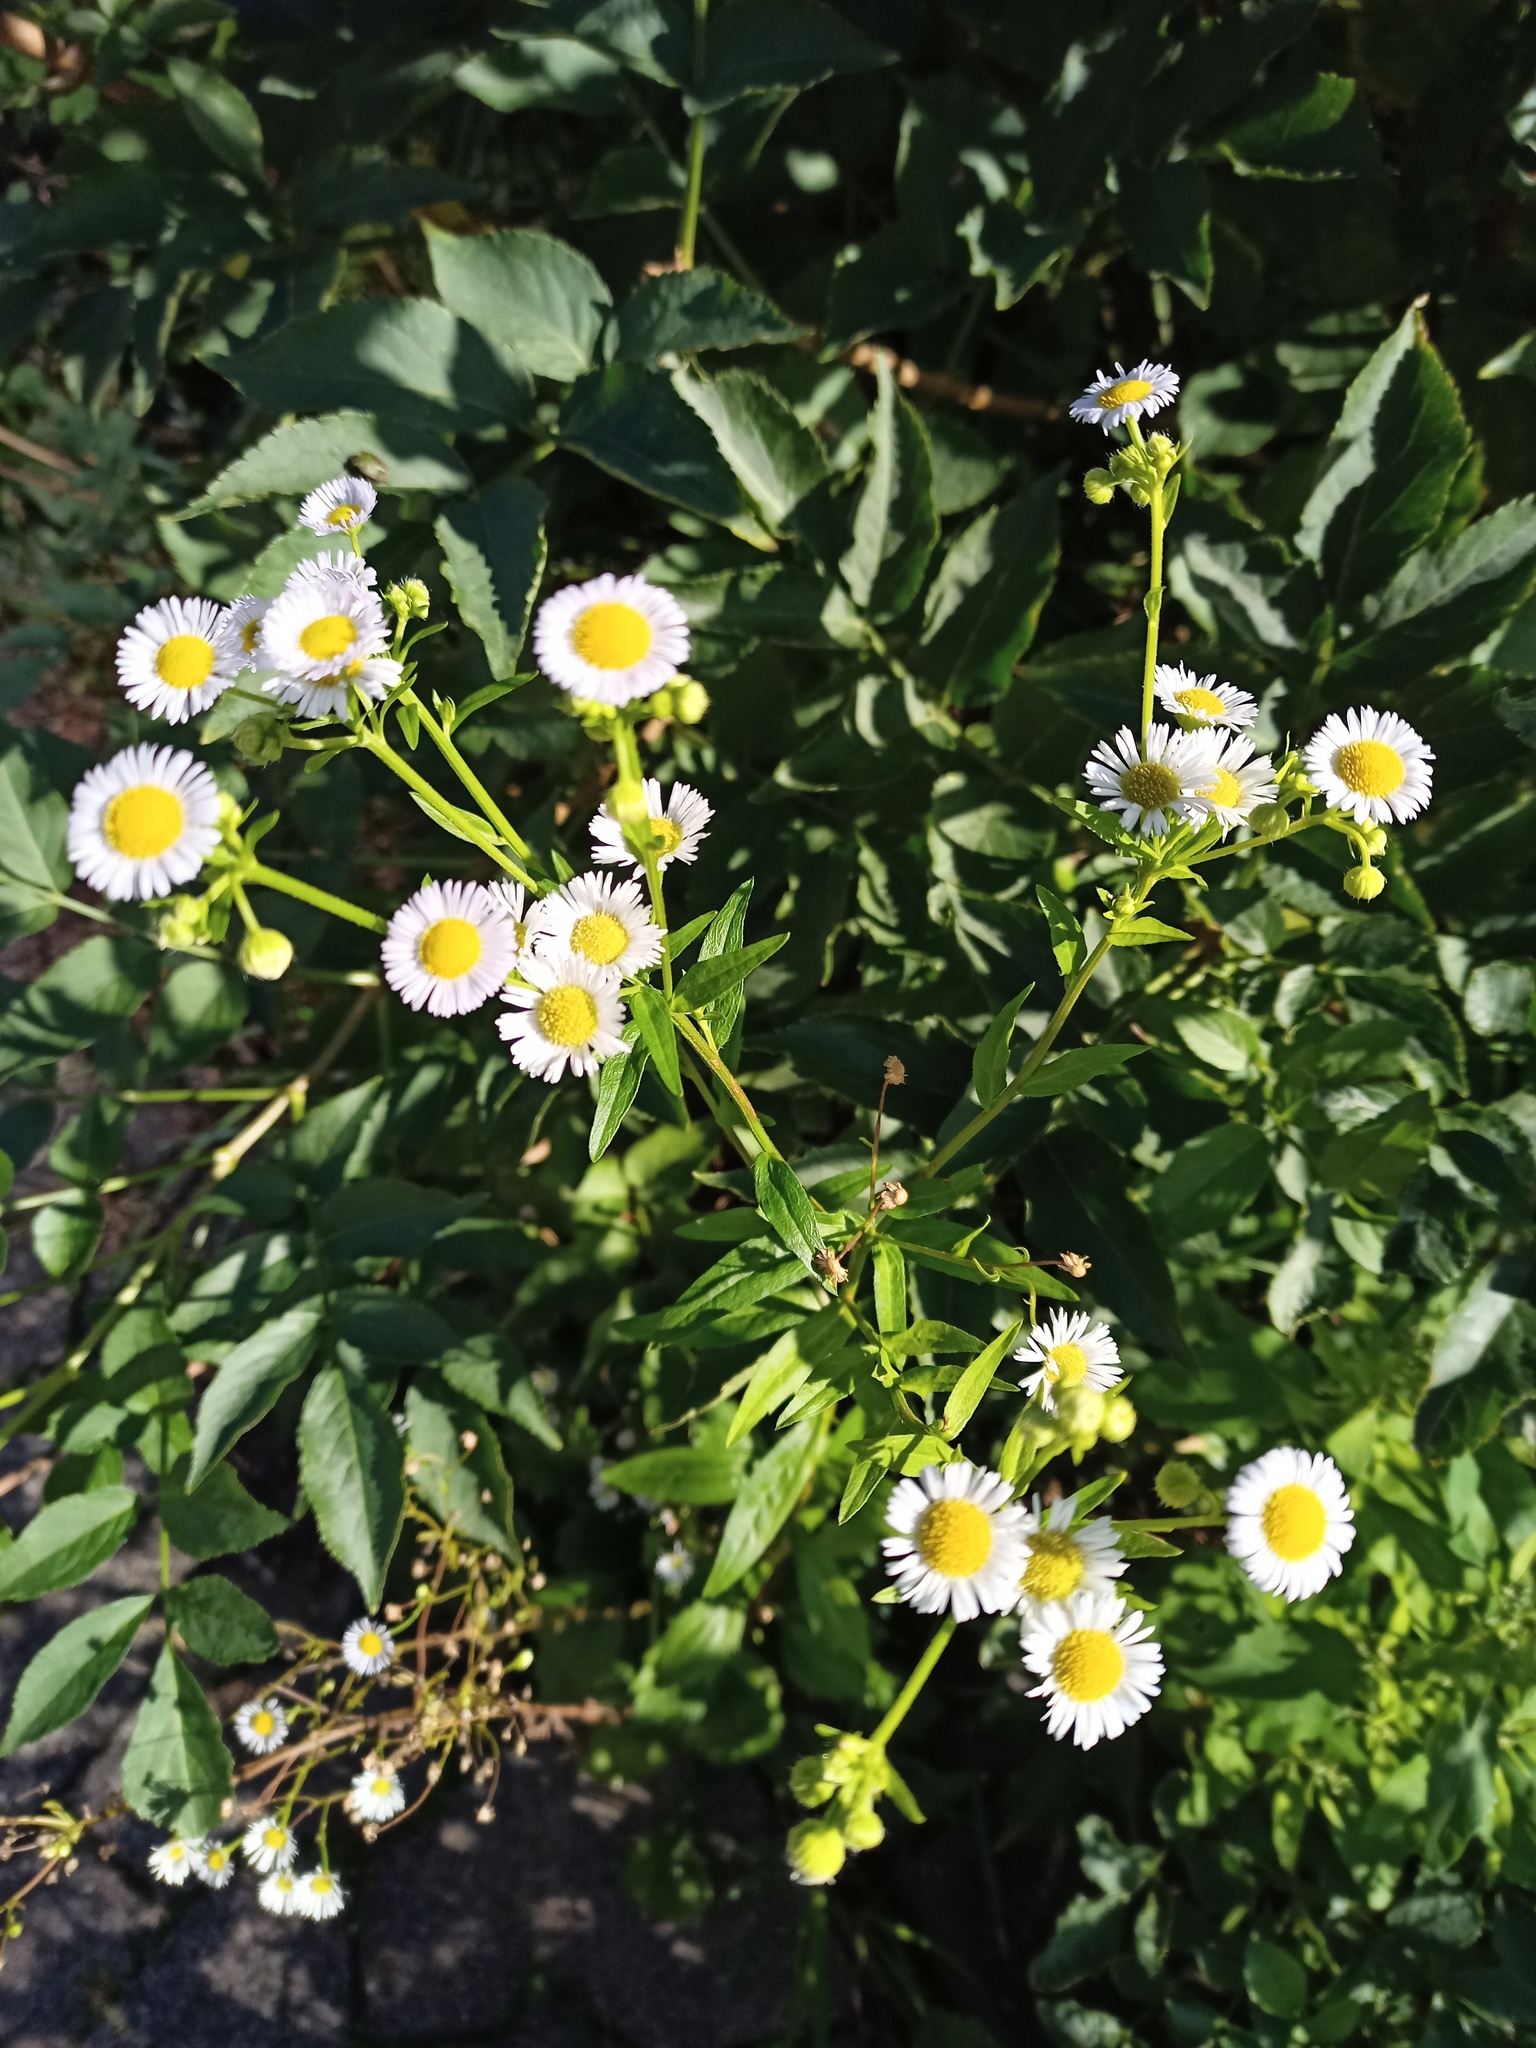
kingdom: Plantae
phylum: Tracheophyta
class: Magnoliopsida
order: Asterales
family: Asteraceae
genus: Erigeron
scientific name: Erigeron annuus
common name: Tall fleabane
